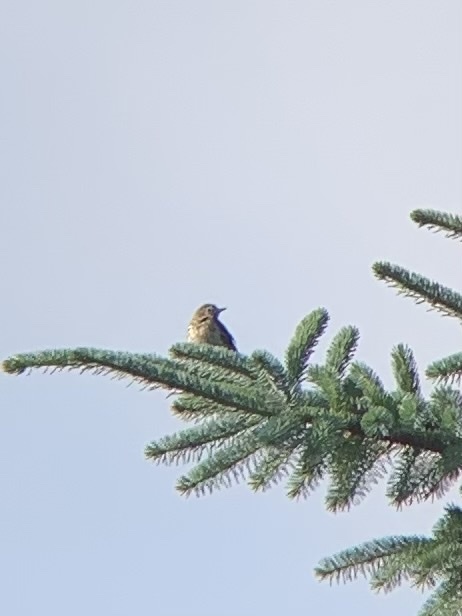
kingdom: Animalia
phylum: Chordata
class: Aves
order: Passeriformes
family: Motacillidae
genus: Anthus
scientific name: Anthus trivialis
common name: Tree pipit
